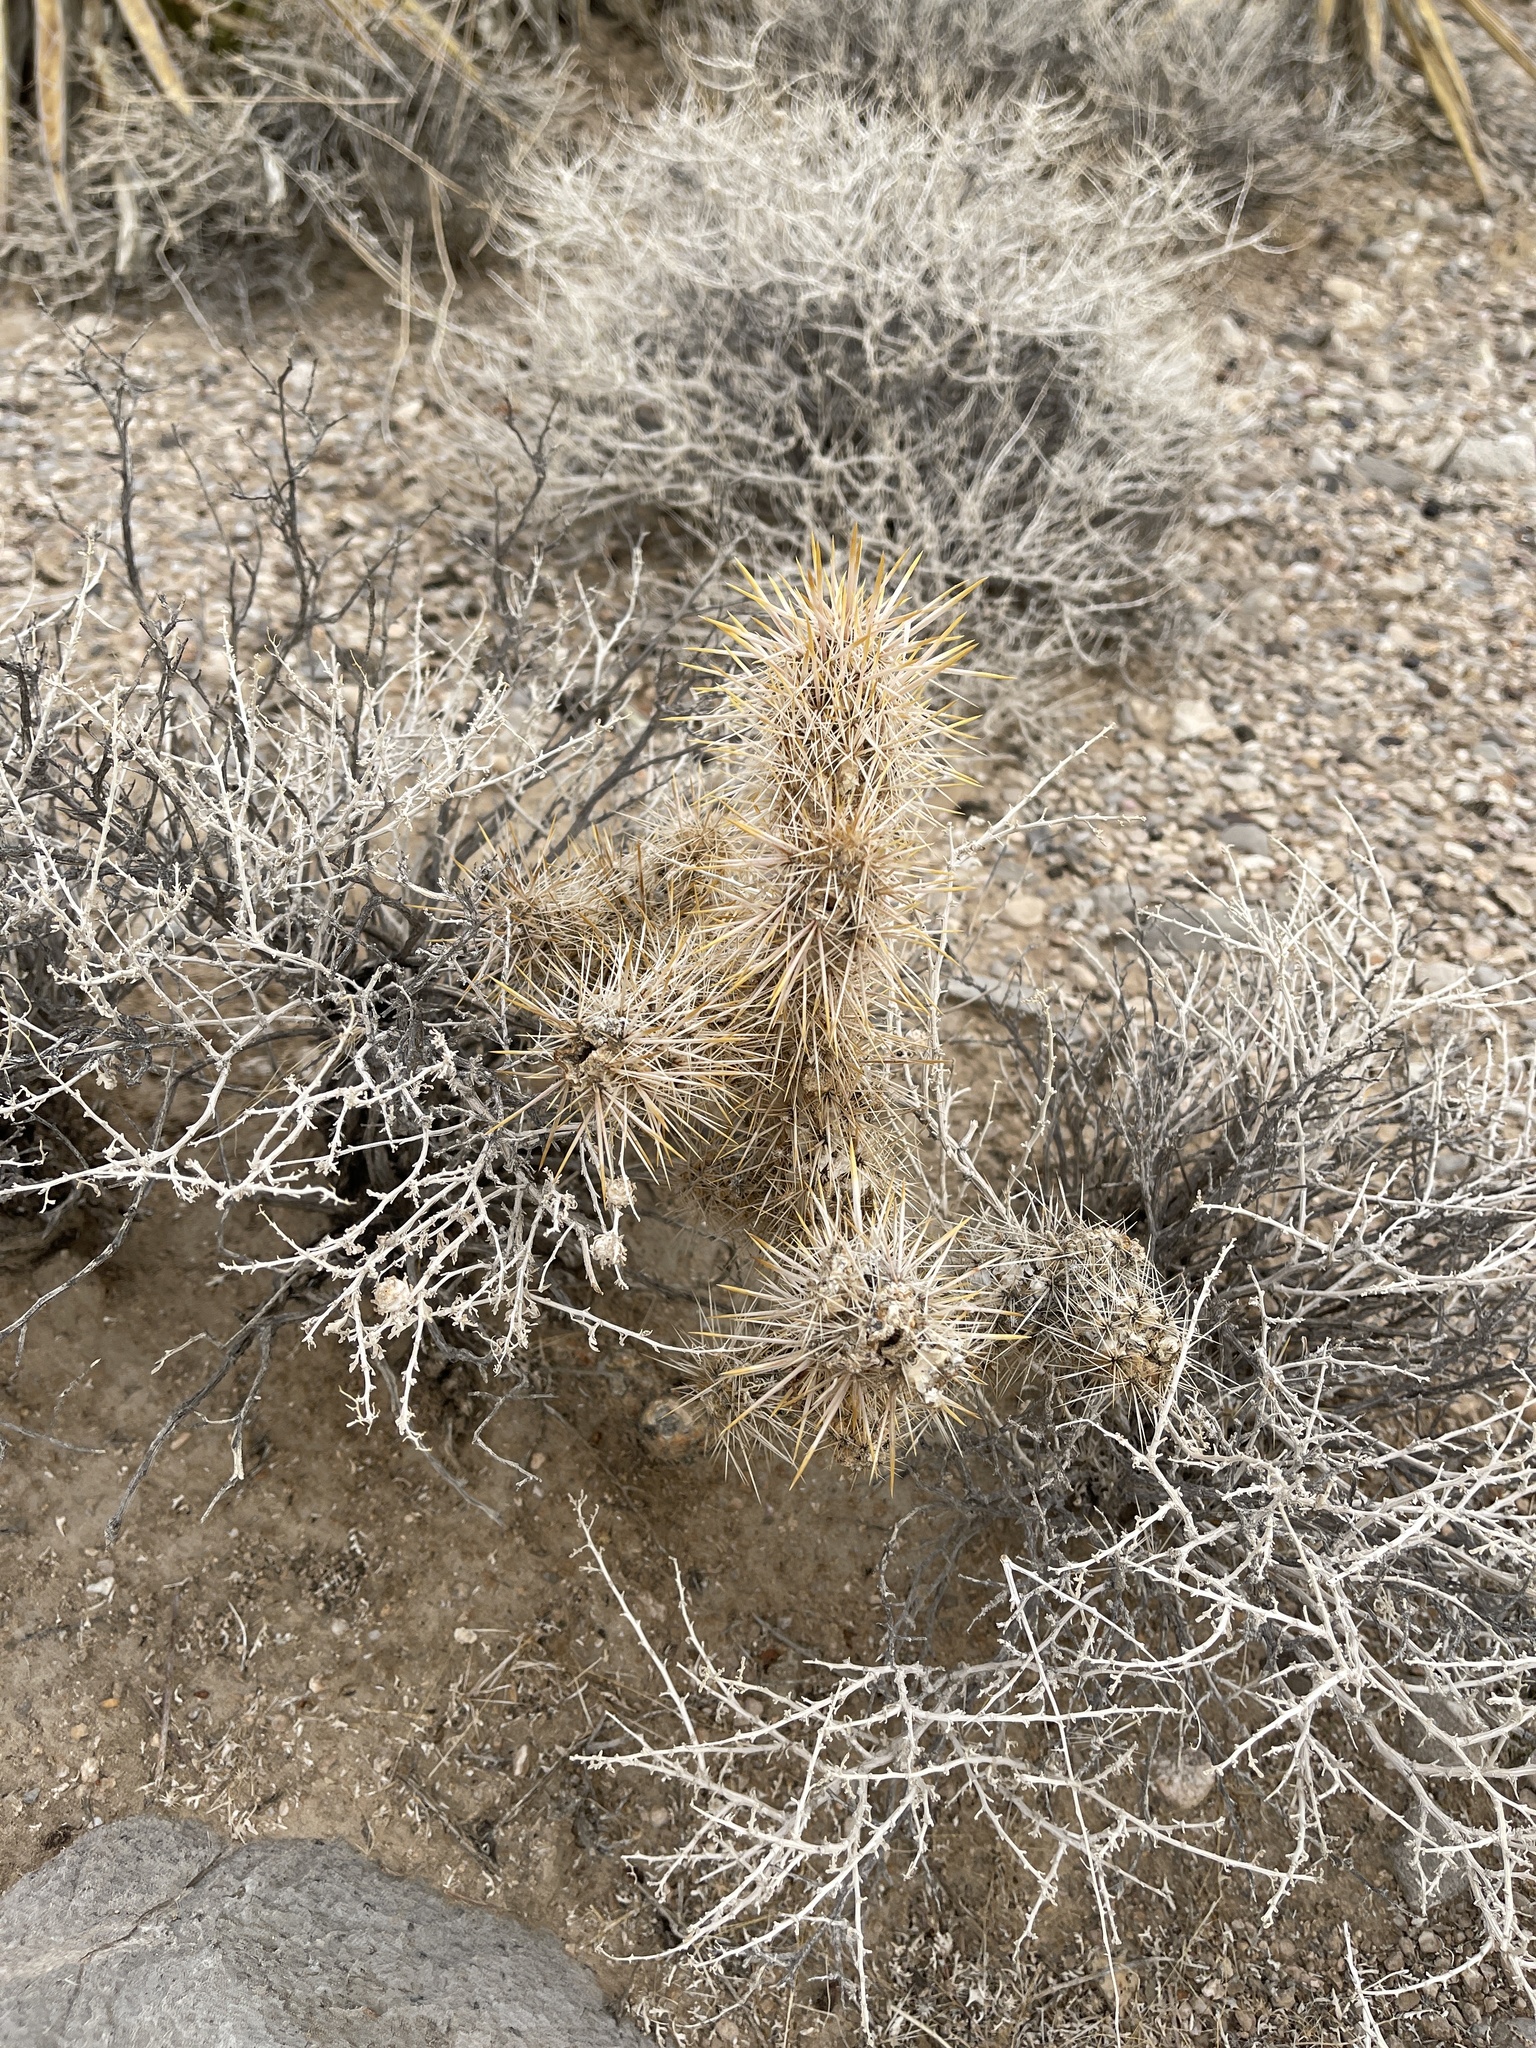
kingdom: Plantae
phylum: Tracheophyta
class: Magnoliopsida
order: Caryophyllales
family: Cactaceae
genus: Cylindropuntia
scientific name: Cylindropuntia echinocarpa
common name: Ground cholla
